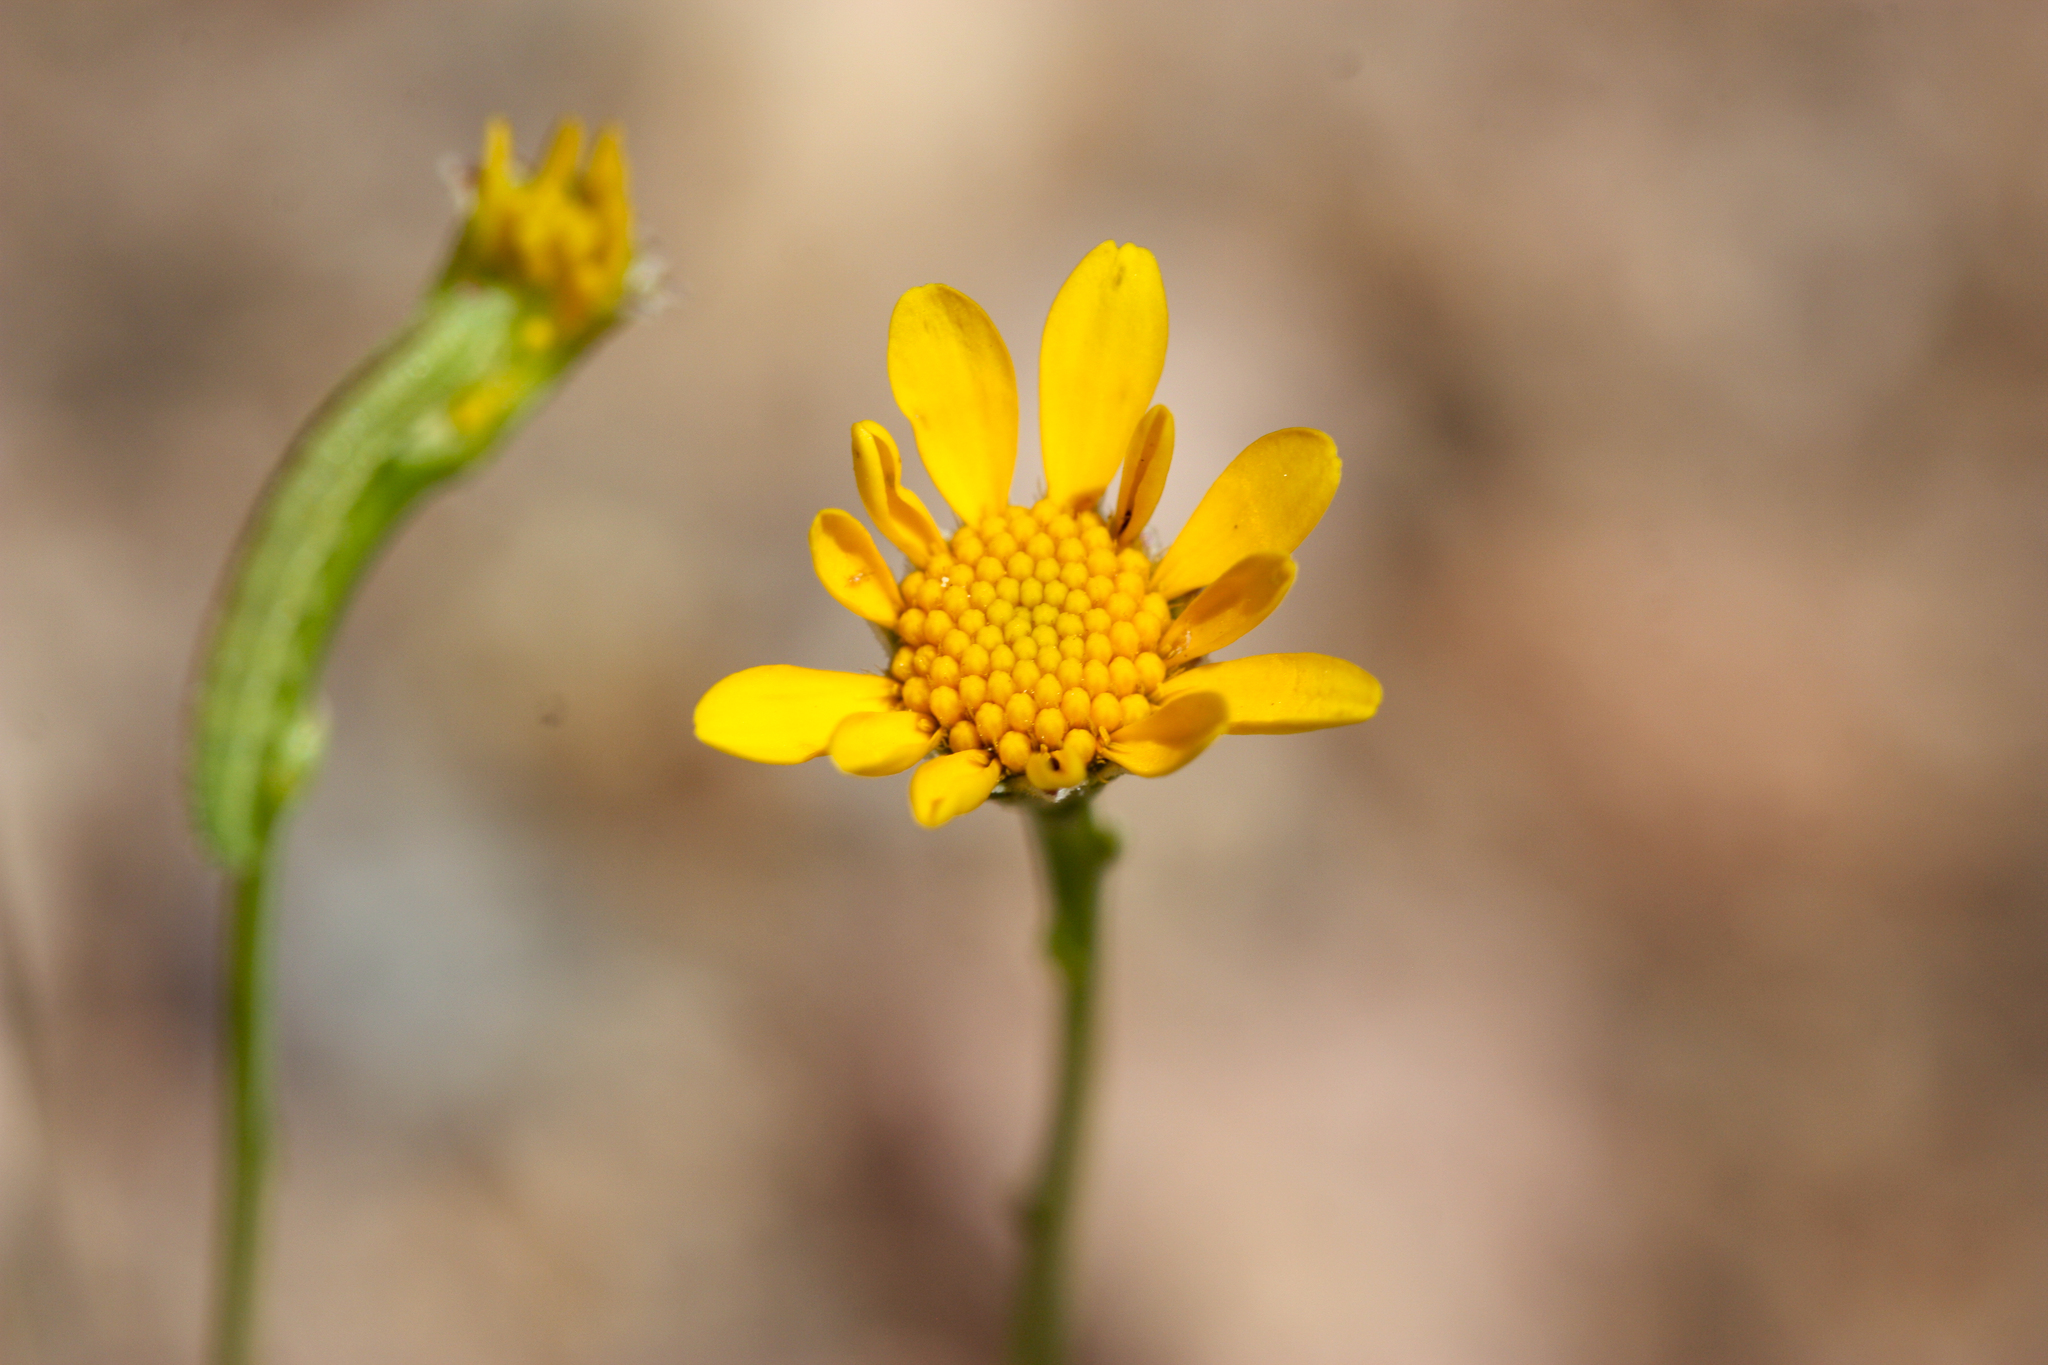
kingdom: Plantae
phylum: Tracheophyta
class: Magnoliopsida
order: Asterales
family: Asteraceae
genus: Thymophylla
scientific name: Thymophylla pentachaeta
